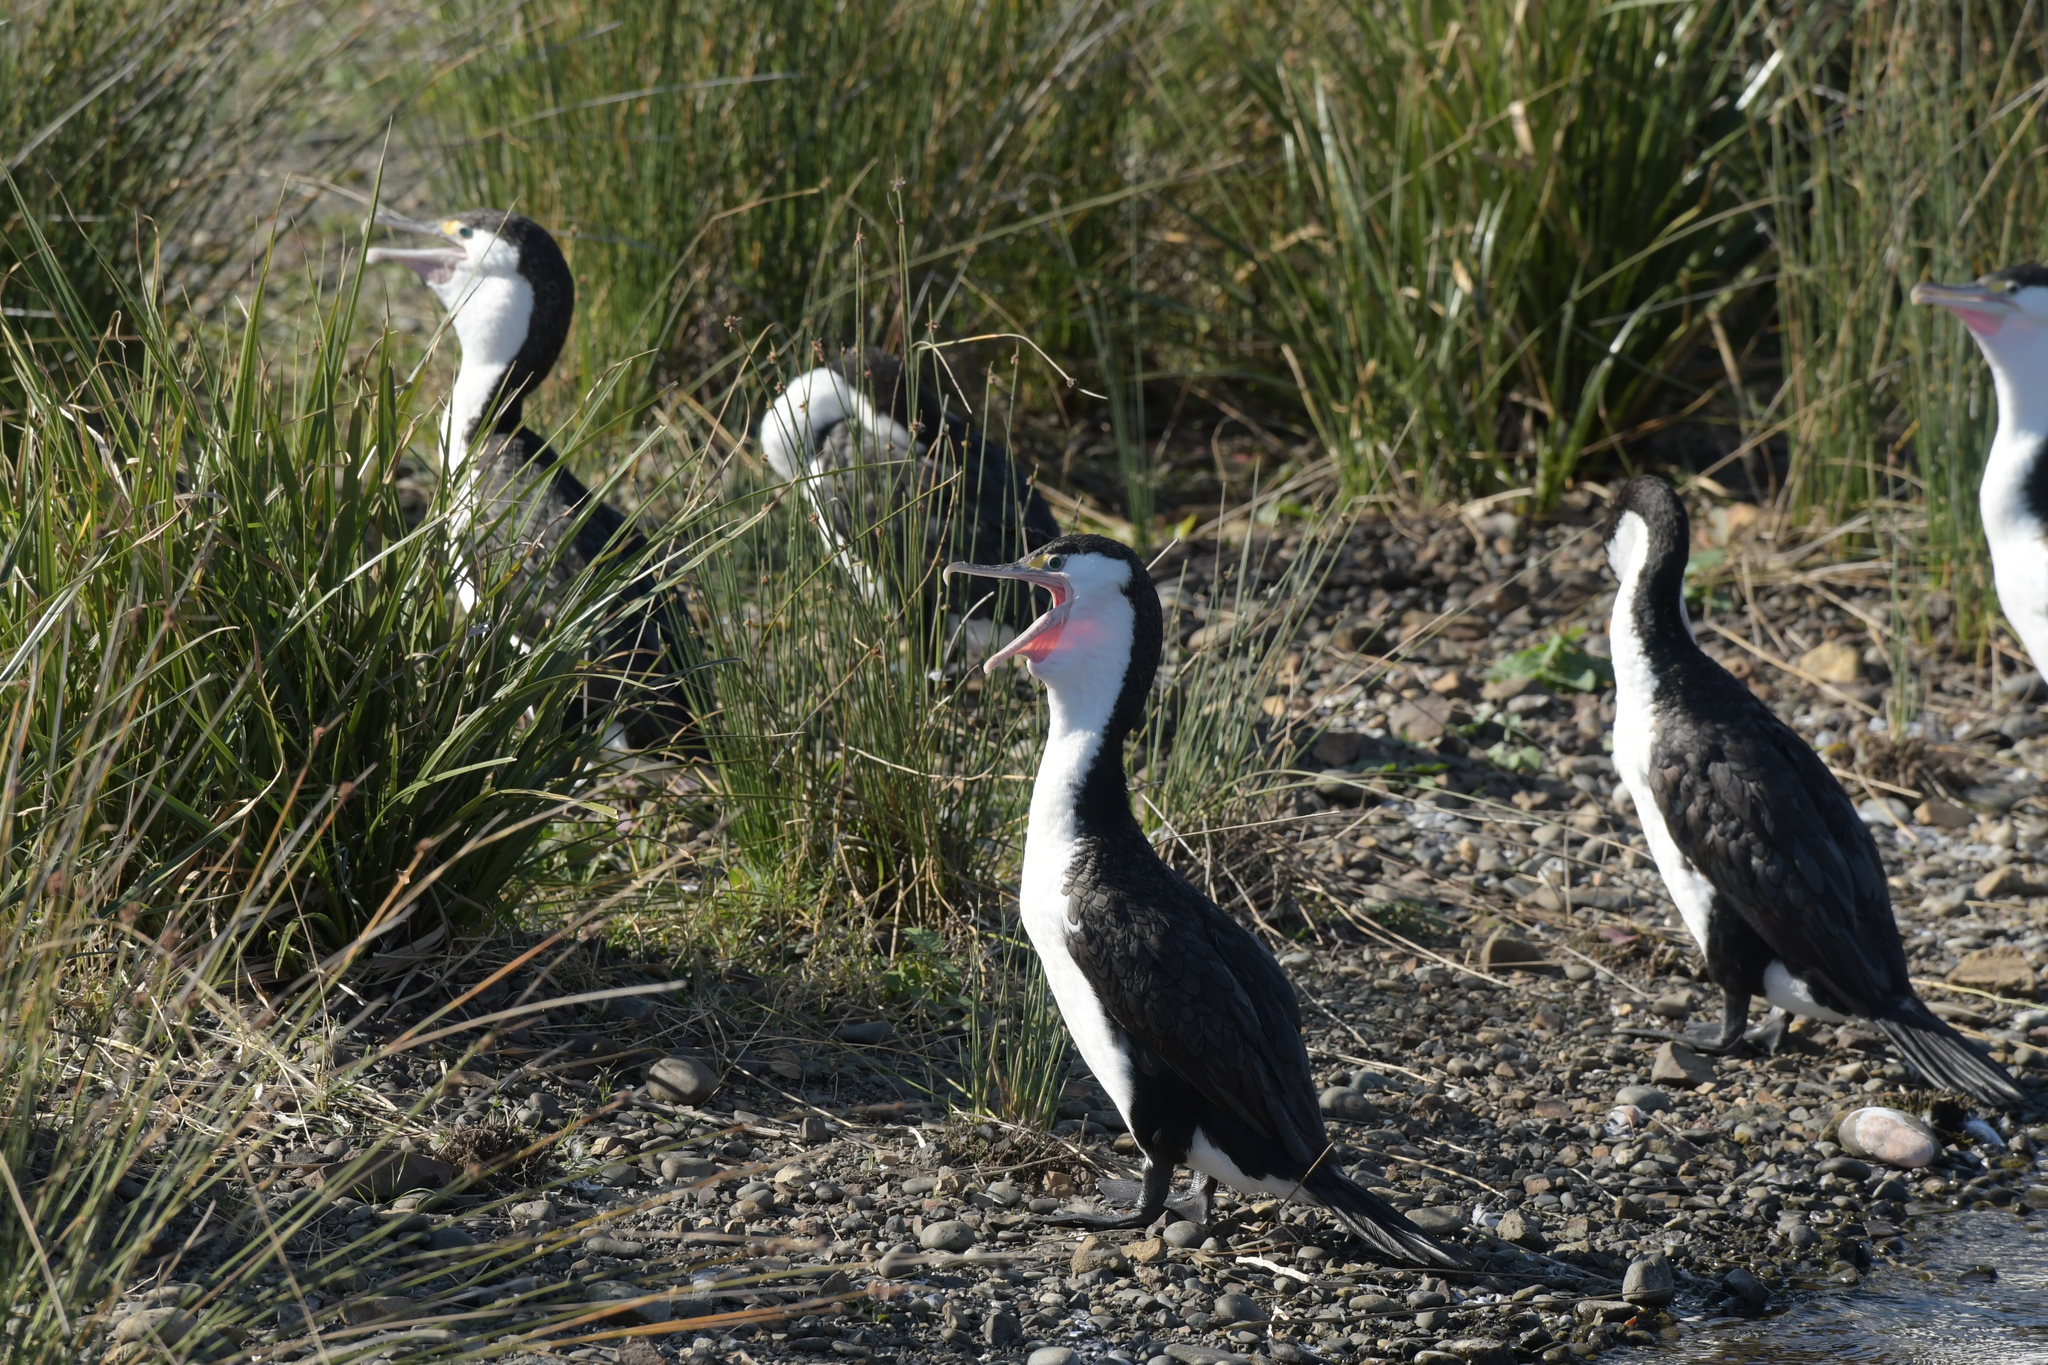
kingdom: Animalia
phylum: Chordata
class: Aves
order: Suliformes
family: Phalacrocoracidae
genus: Phalacrocorax
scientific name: Phalacrocorax varius
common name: Pied cormorant
